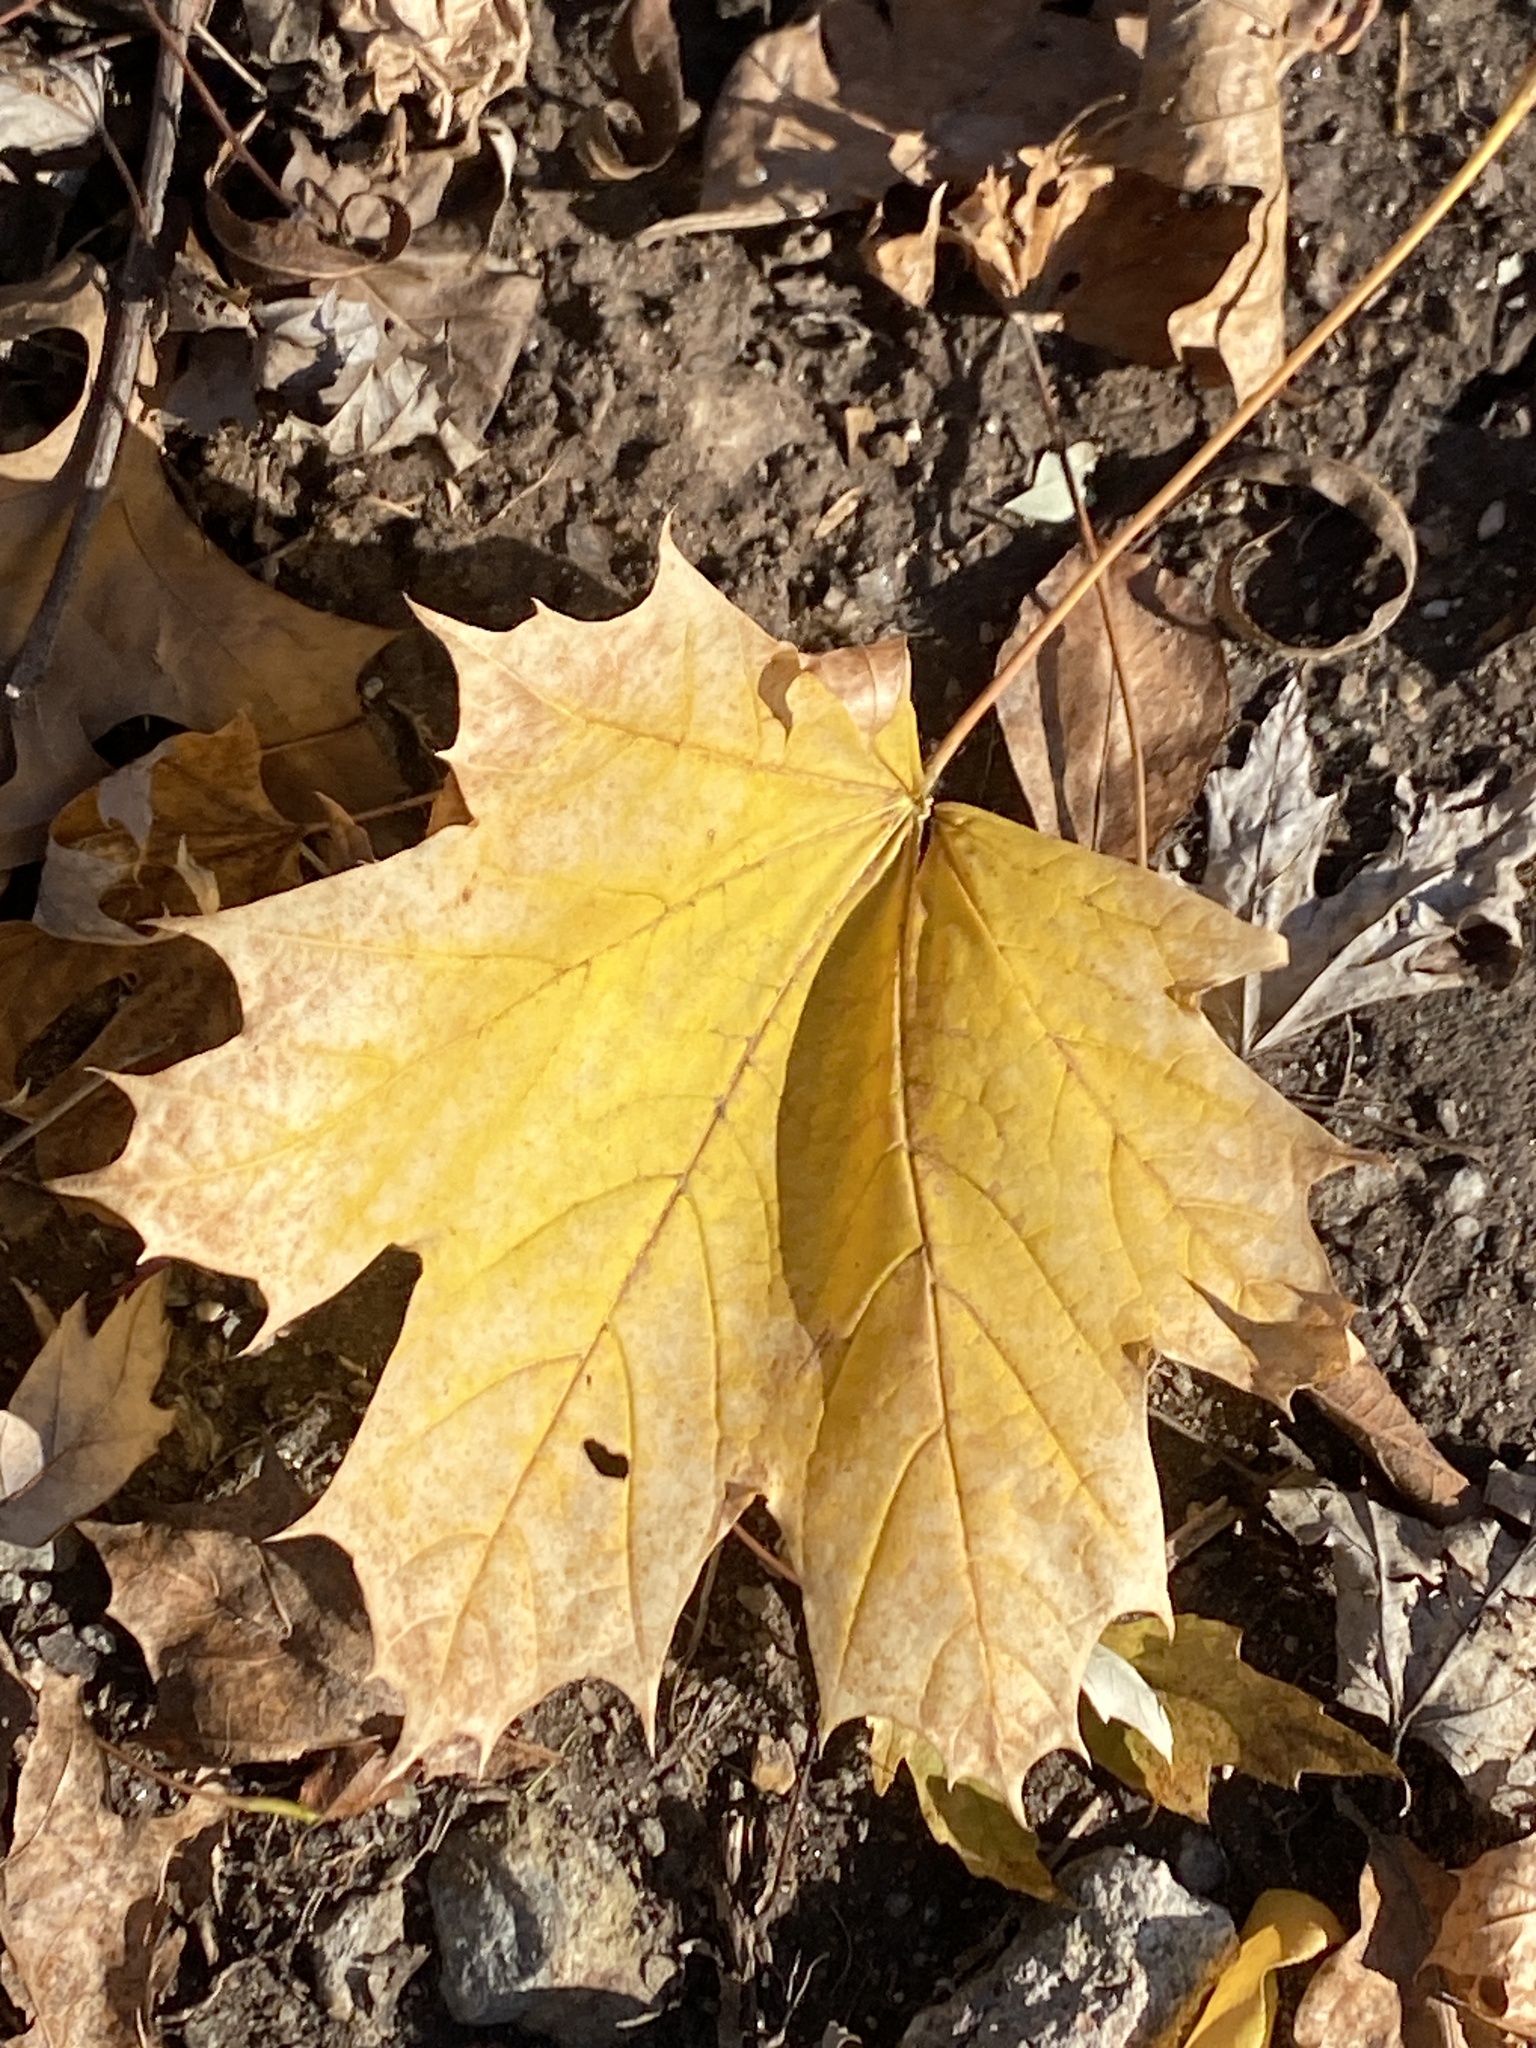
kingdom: Plantae
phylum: Tracheophyta
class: Magnoliopsida
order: Sapindales
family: Sapindaceae
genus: Acer
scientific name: Acer platanoides
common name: Norway maple
